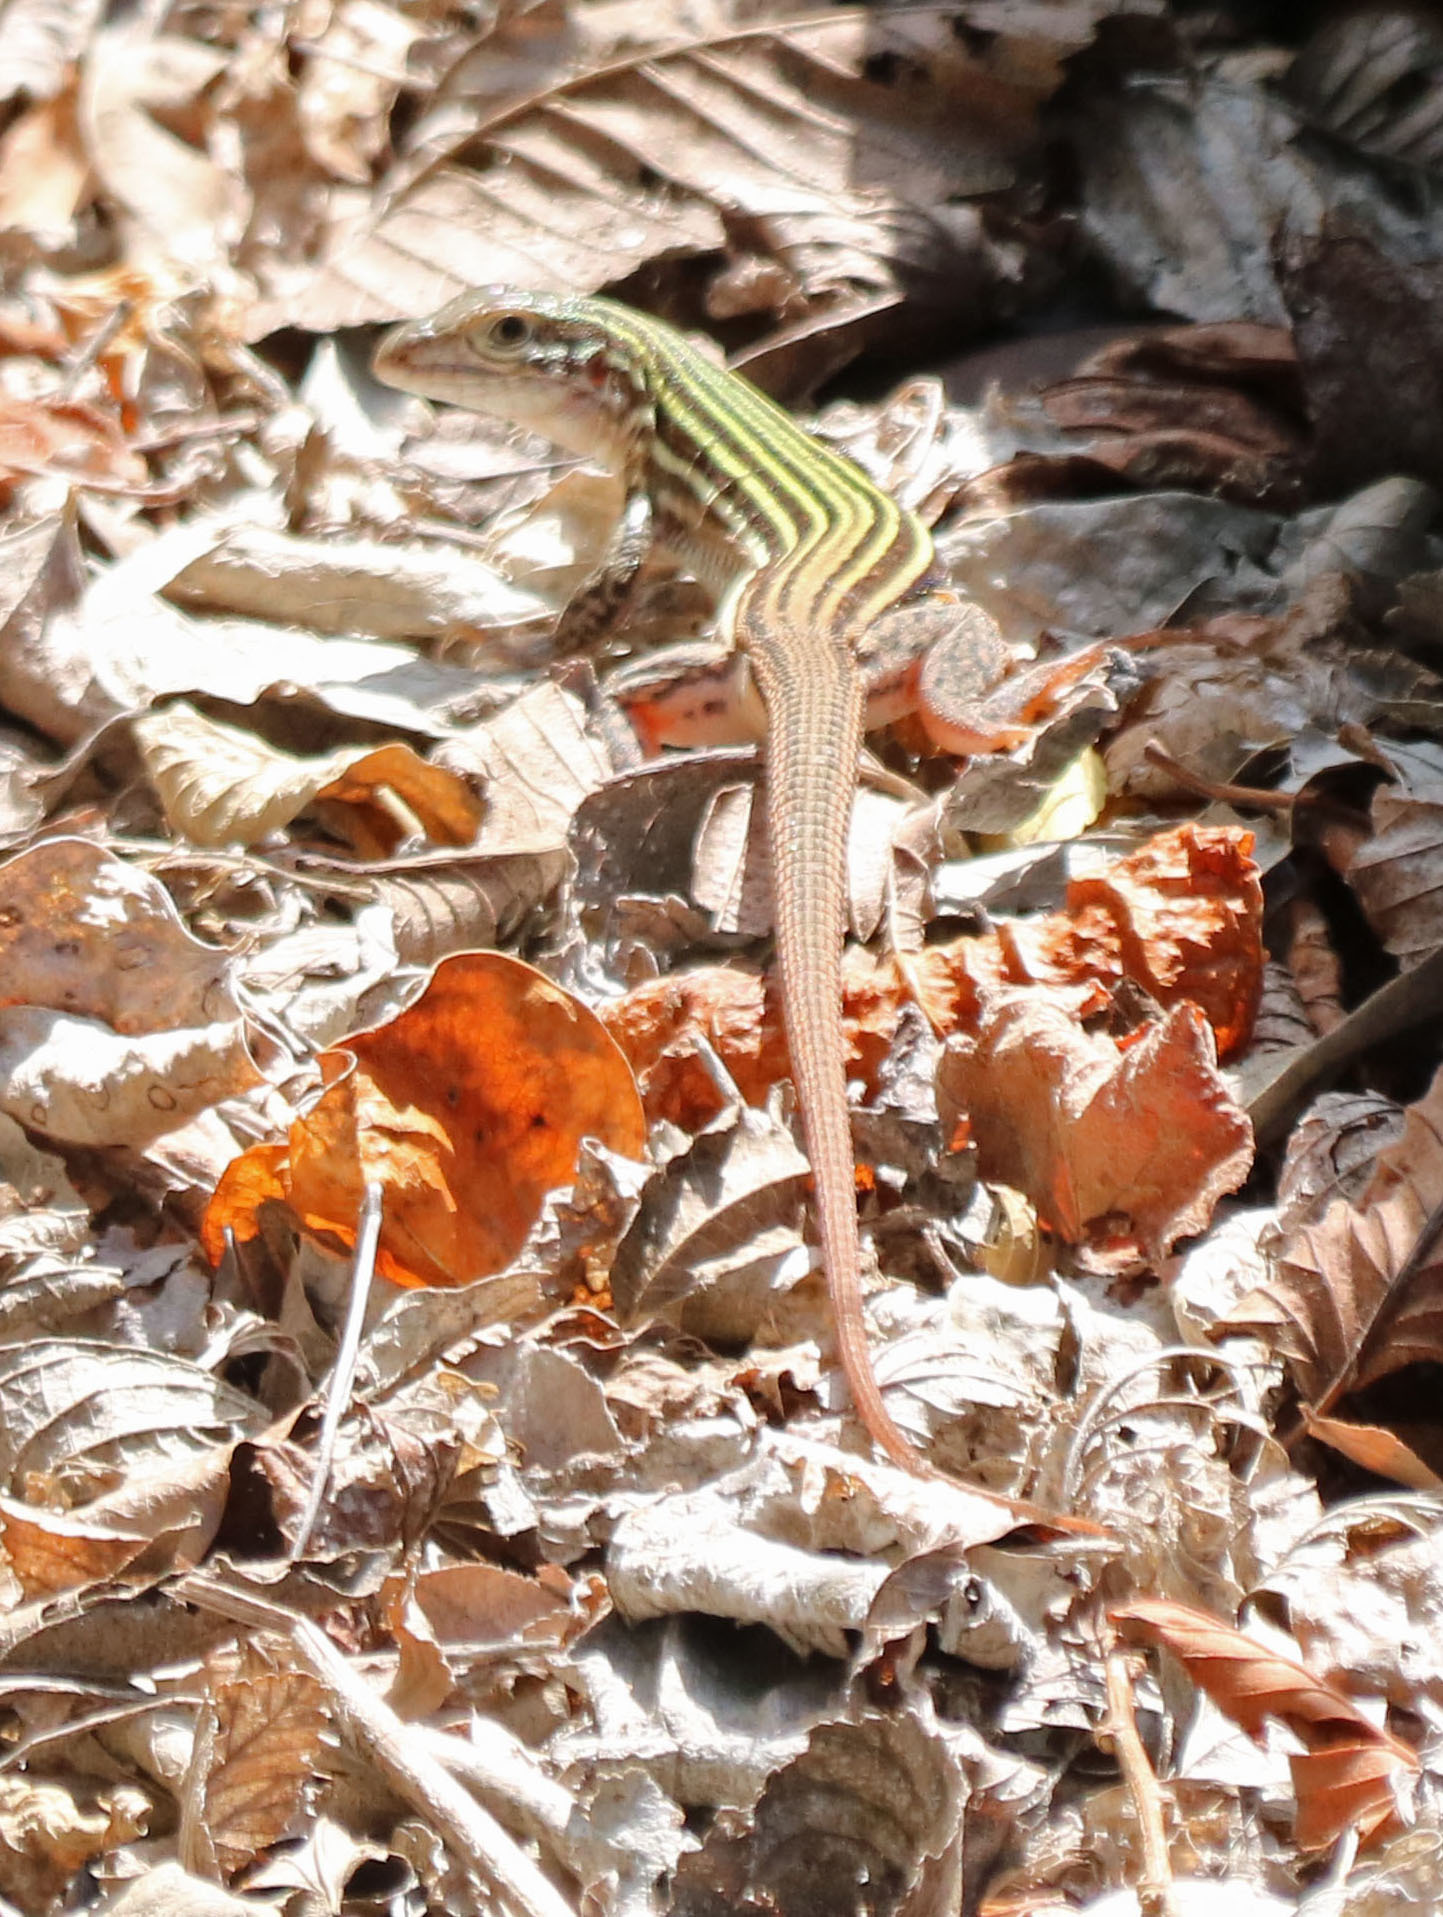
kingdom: Animalia
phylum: Chordata
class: Squamata
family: Teiidae
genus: Aspidoscelis
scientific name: Aspidoscelis gularis
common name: Eastern spotted whiptail
